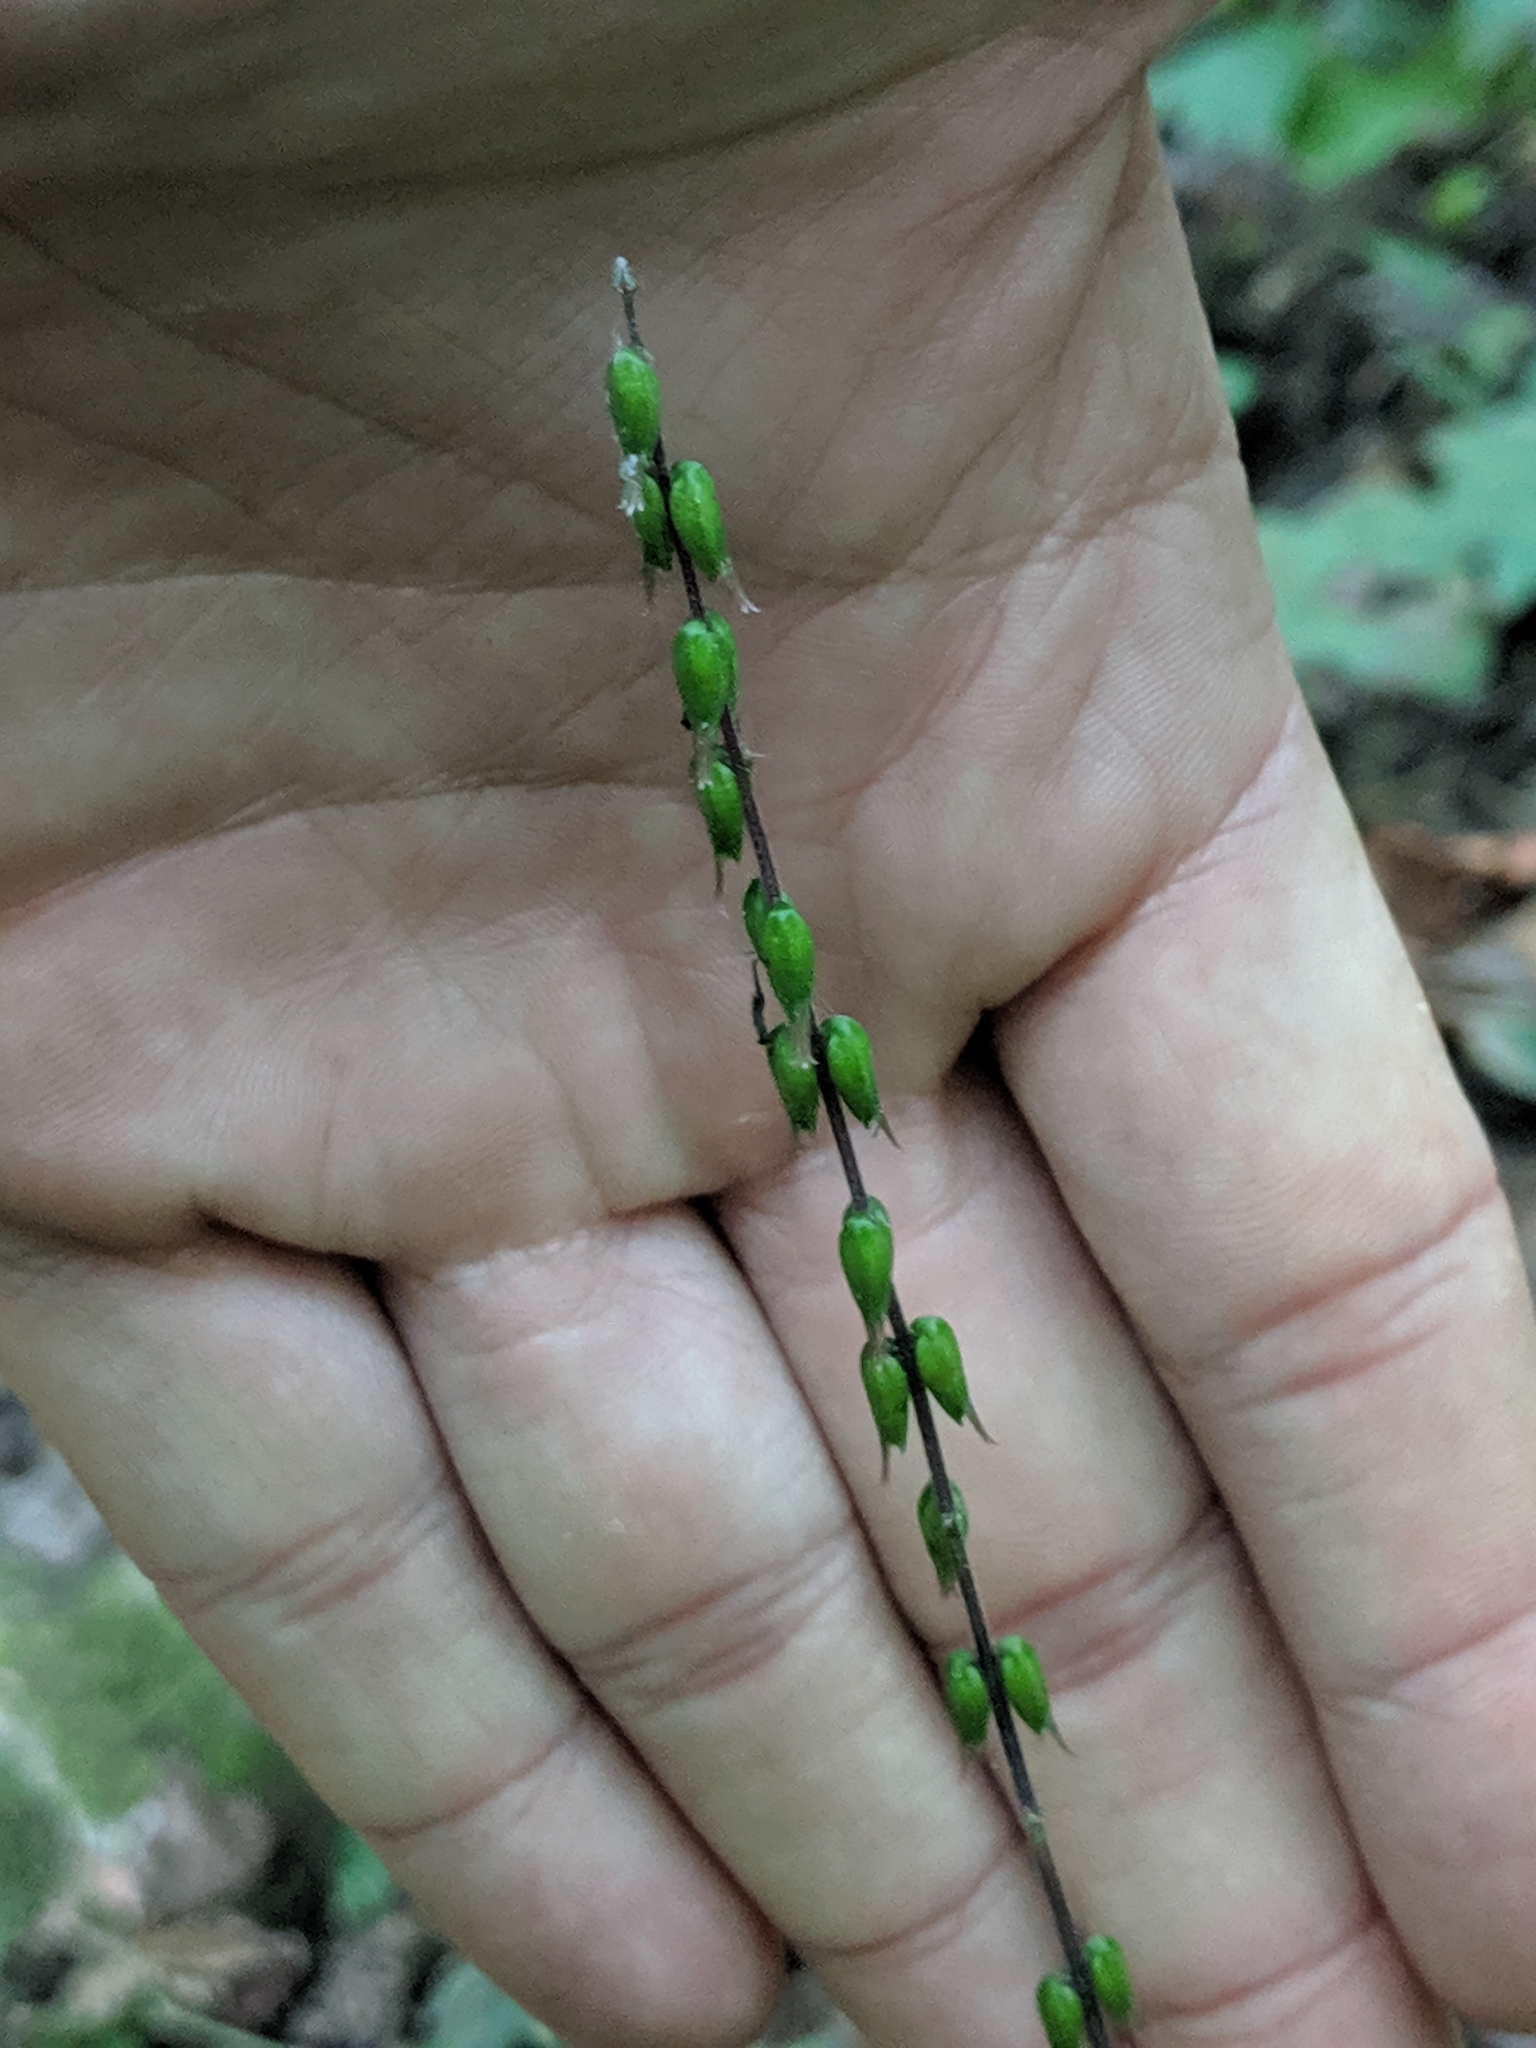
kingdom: Plantae
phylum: Tracheophyta
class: Magnoliopsida
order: Lamiales
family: Phrymaceae
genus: Phryma
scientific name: Phryma leptostachya
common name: American lopseed
